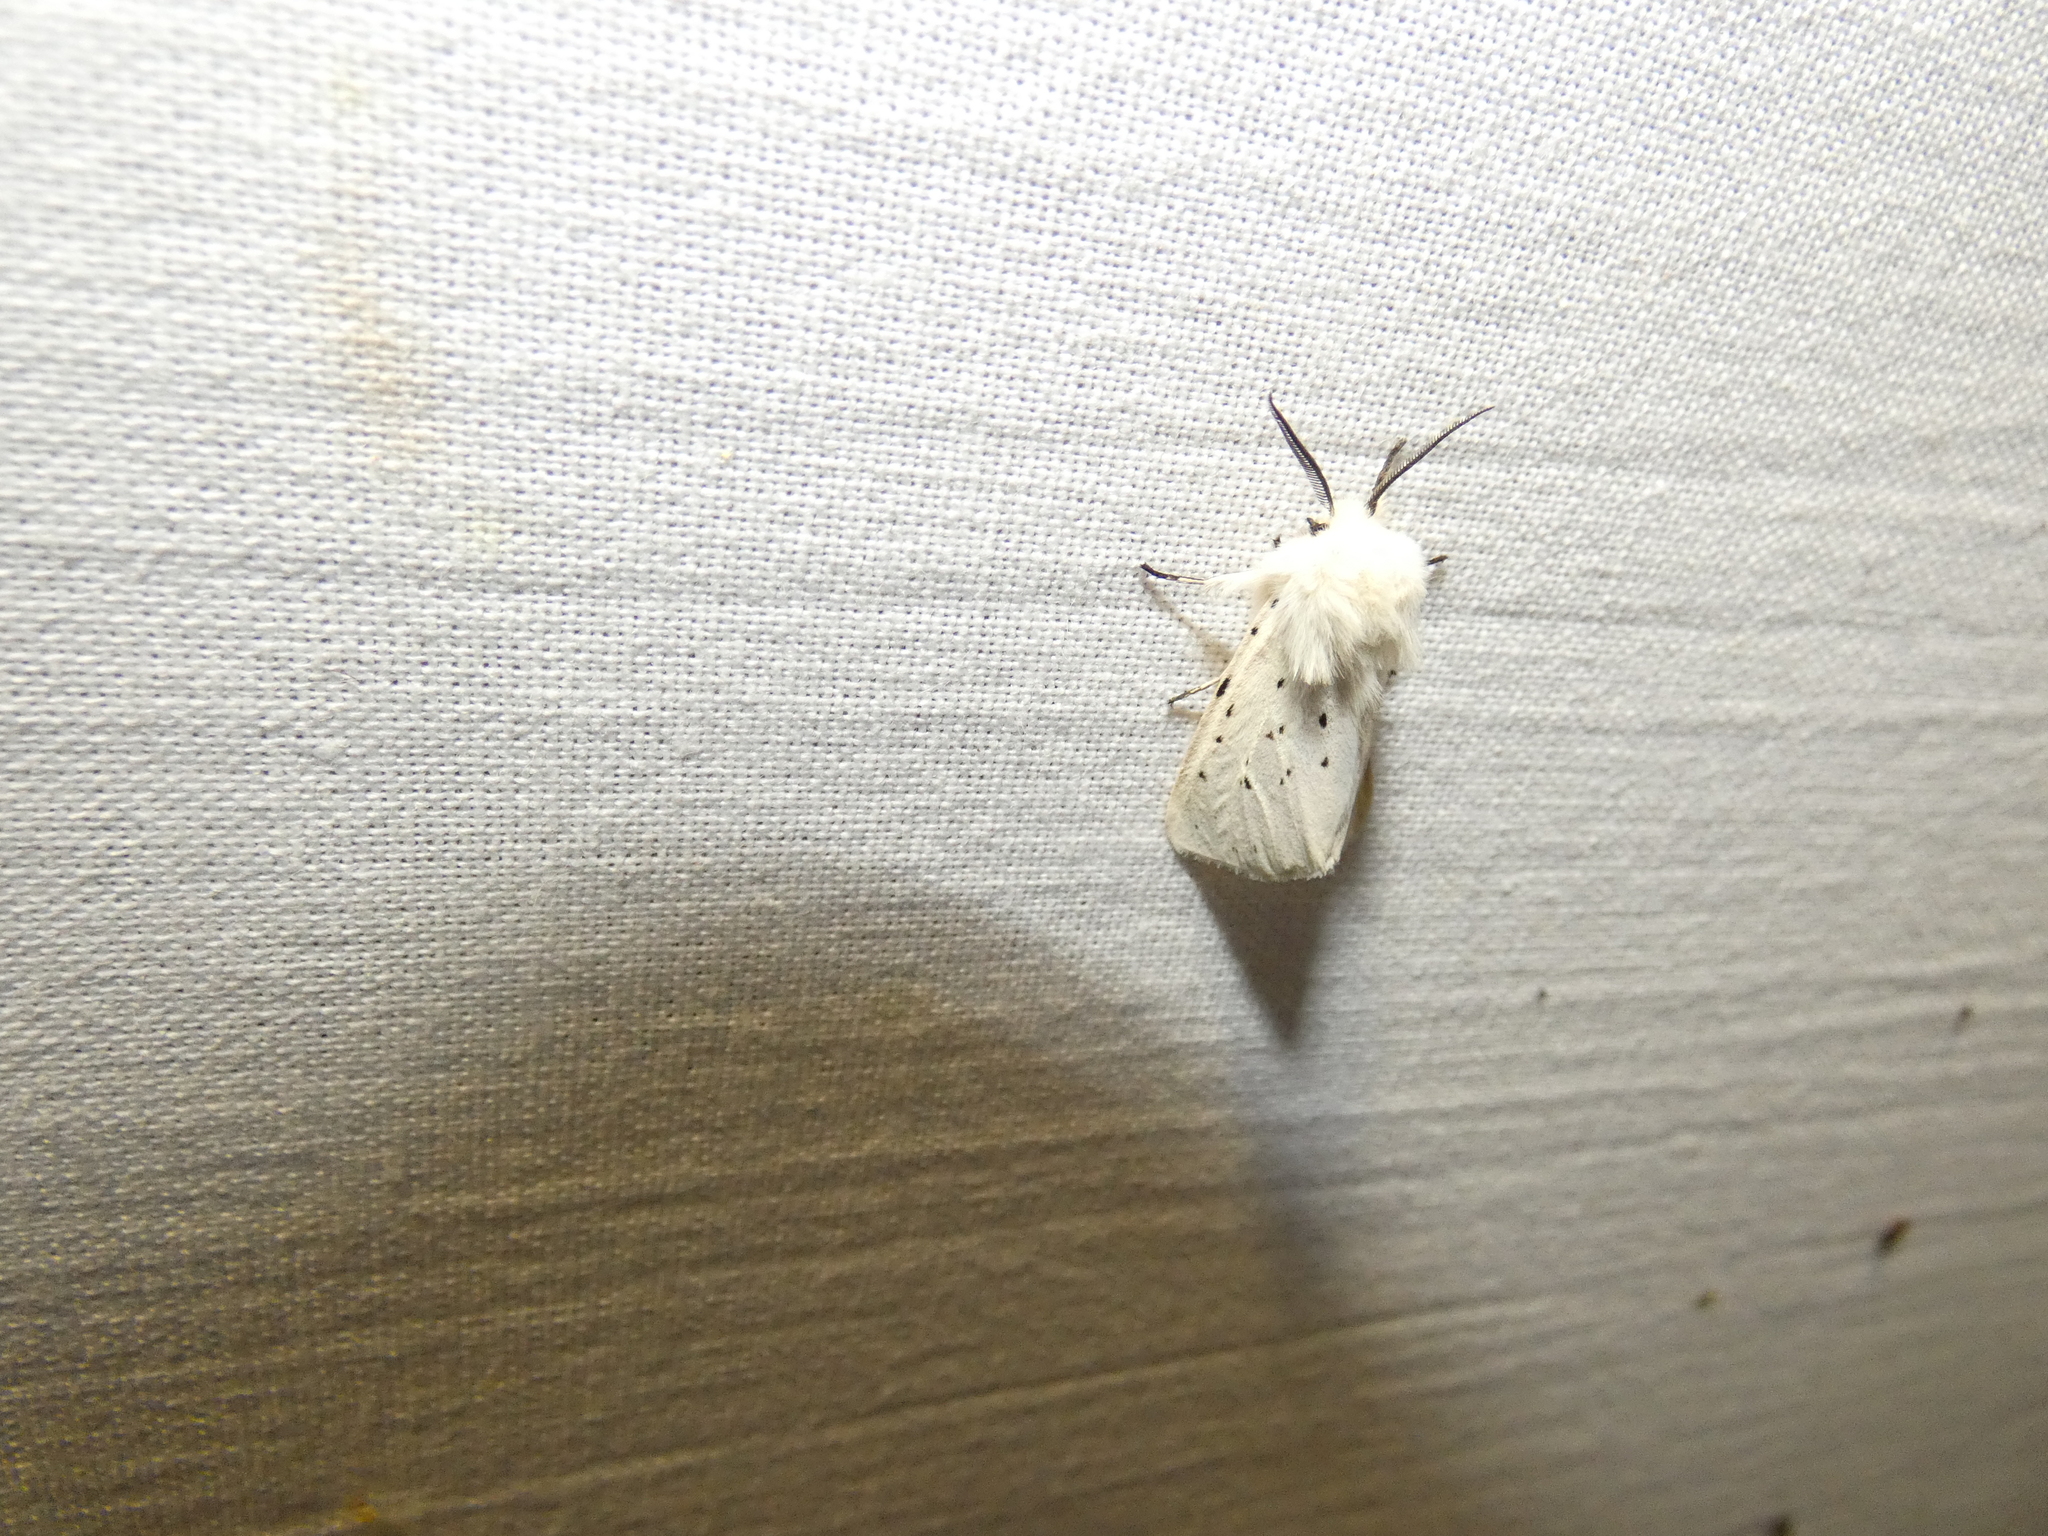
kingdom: Animalia
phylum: Arthropoda
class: Insecta
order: Lepidoptera
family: Erebidae
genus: Spilosoma
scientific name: Spilosoma lubricipeda
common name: White ermine
